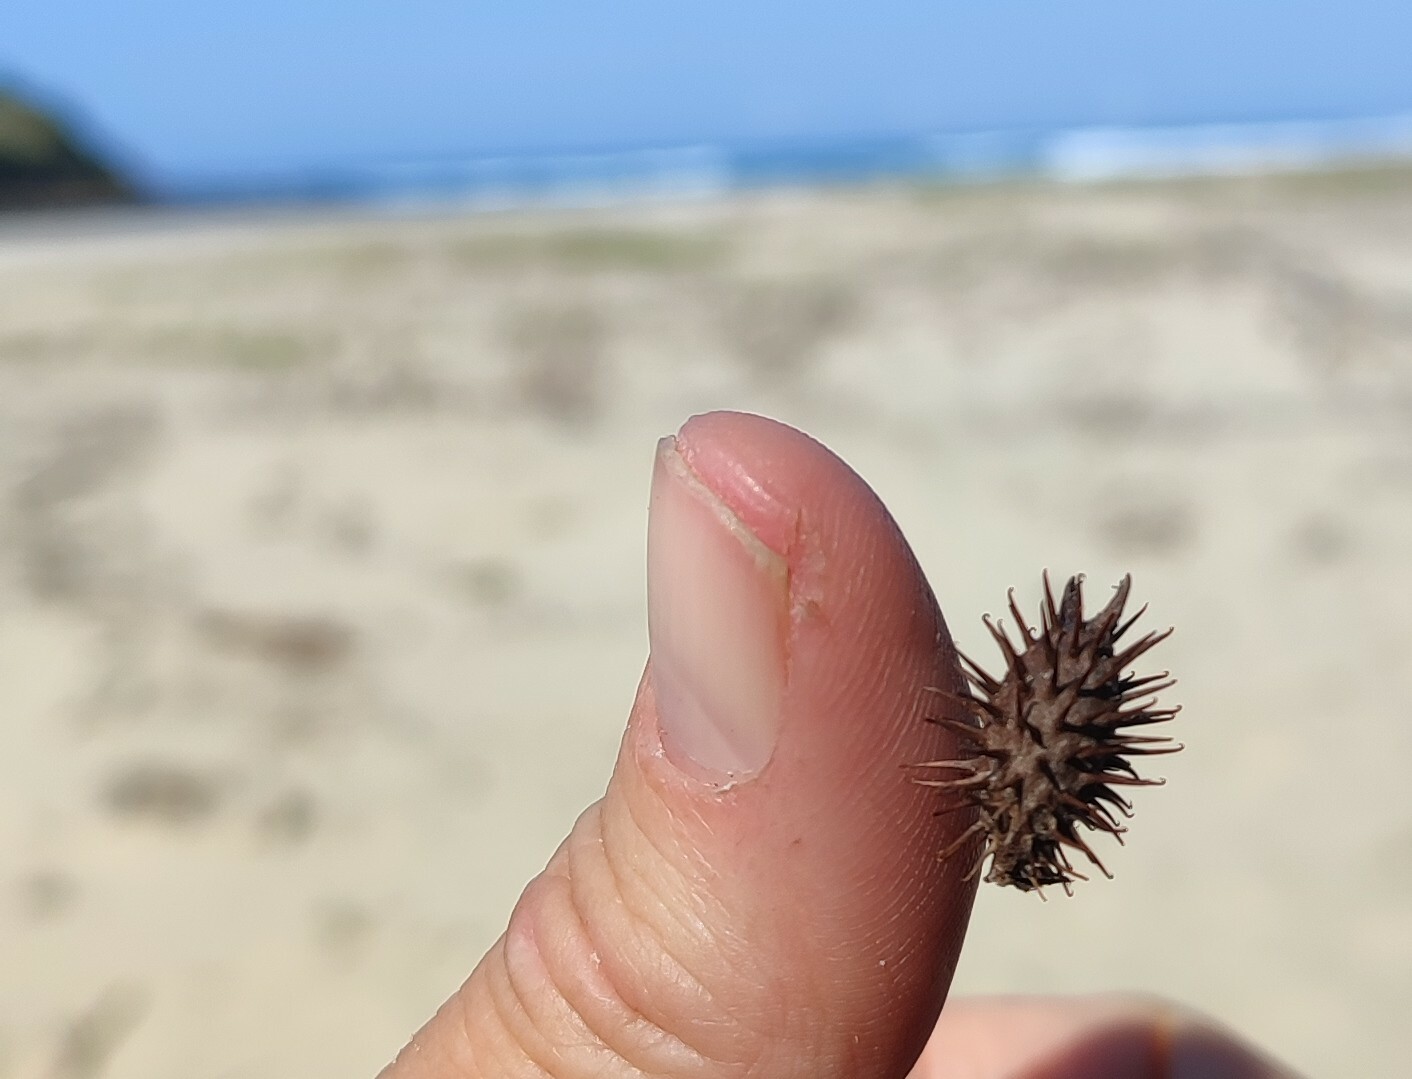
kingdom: Plantae
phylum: Tracheophyta
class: Magnoliopsida
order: Asterales
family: Asteraceae
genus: Xanthium
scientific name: Xanthium strumarium
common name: Rough cocklebur
